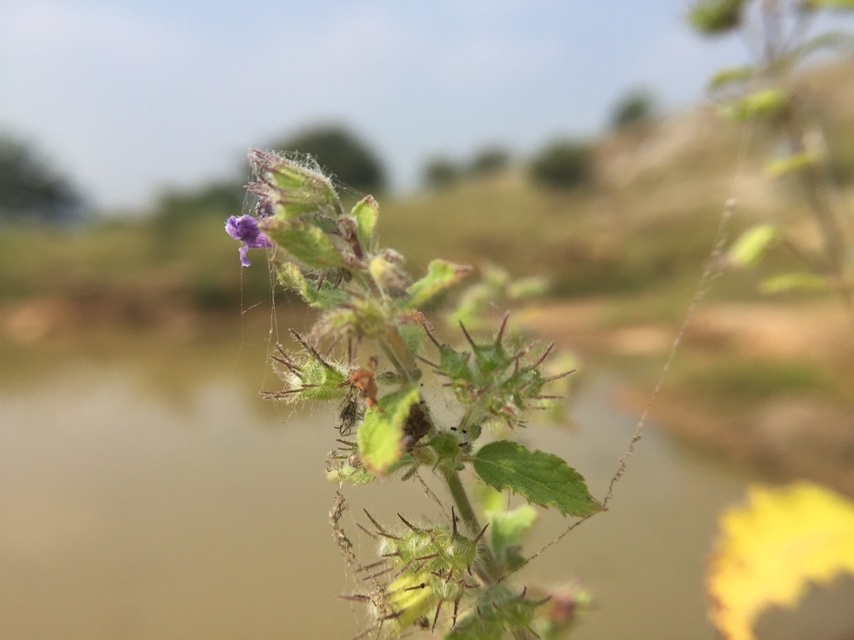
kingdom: Plantae
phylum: Tracheophyta
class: Magnoliopsida
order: Lamiales
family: Lamiaceae
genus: Mesosphaerum
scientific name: Mesosphaerum suaveolens
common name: Pignut
